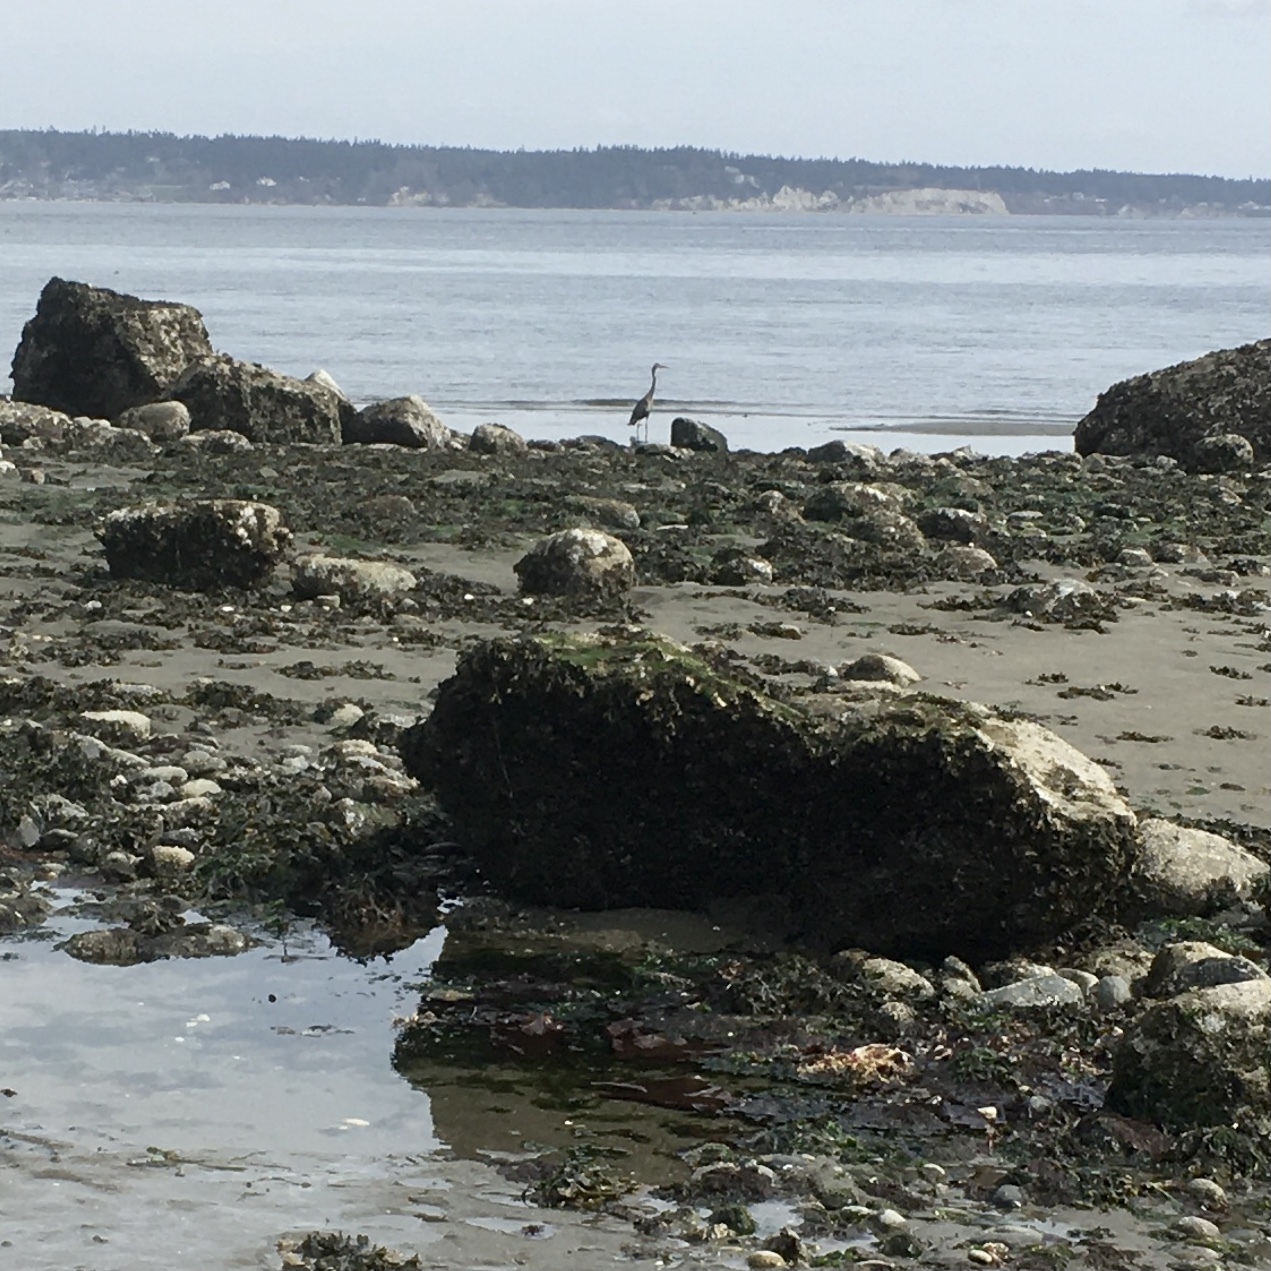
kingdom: Animalia
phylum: Chordata
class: Aves
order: Pelecaniformes
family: Ardeidae
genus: Ardea
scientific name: Ardea herodias
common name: Great blue heron
